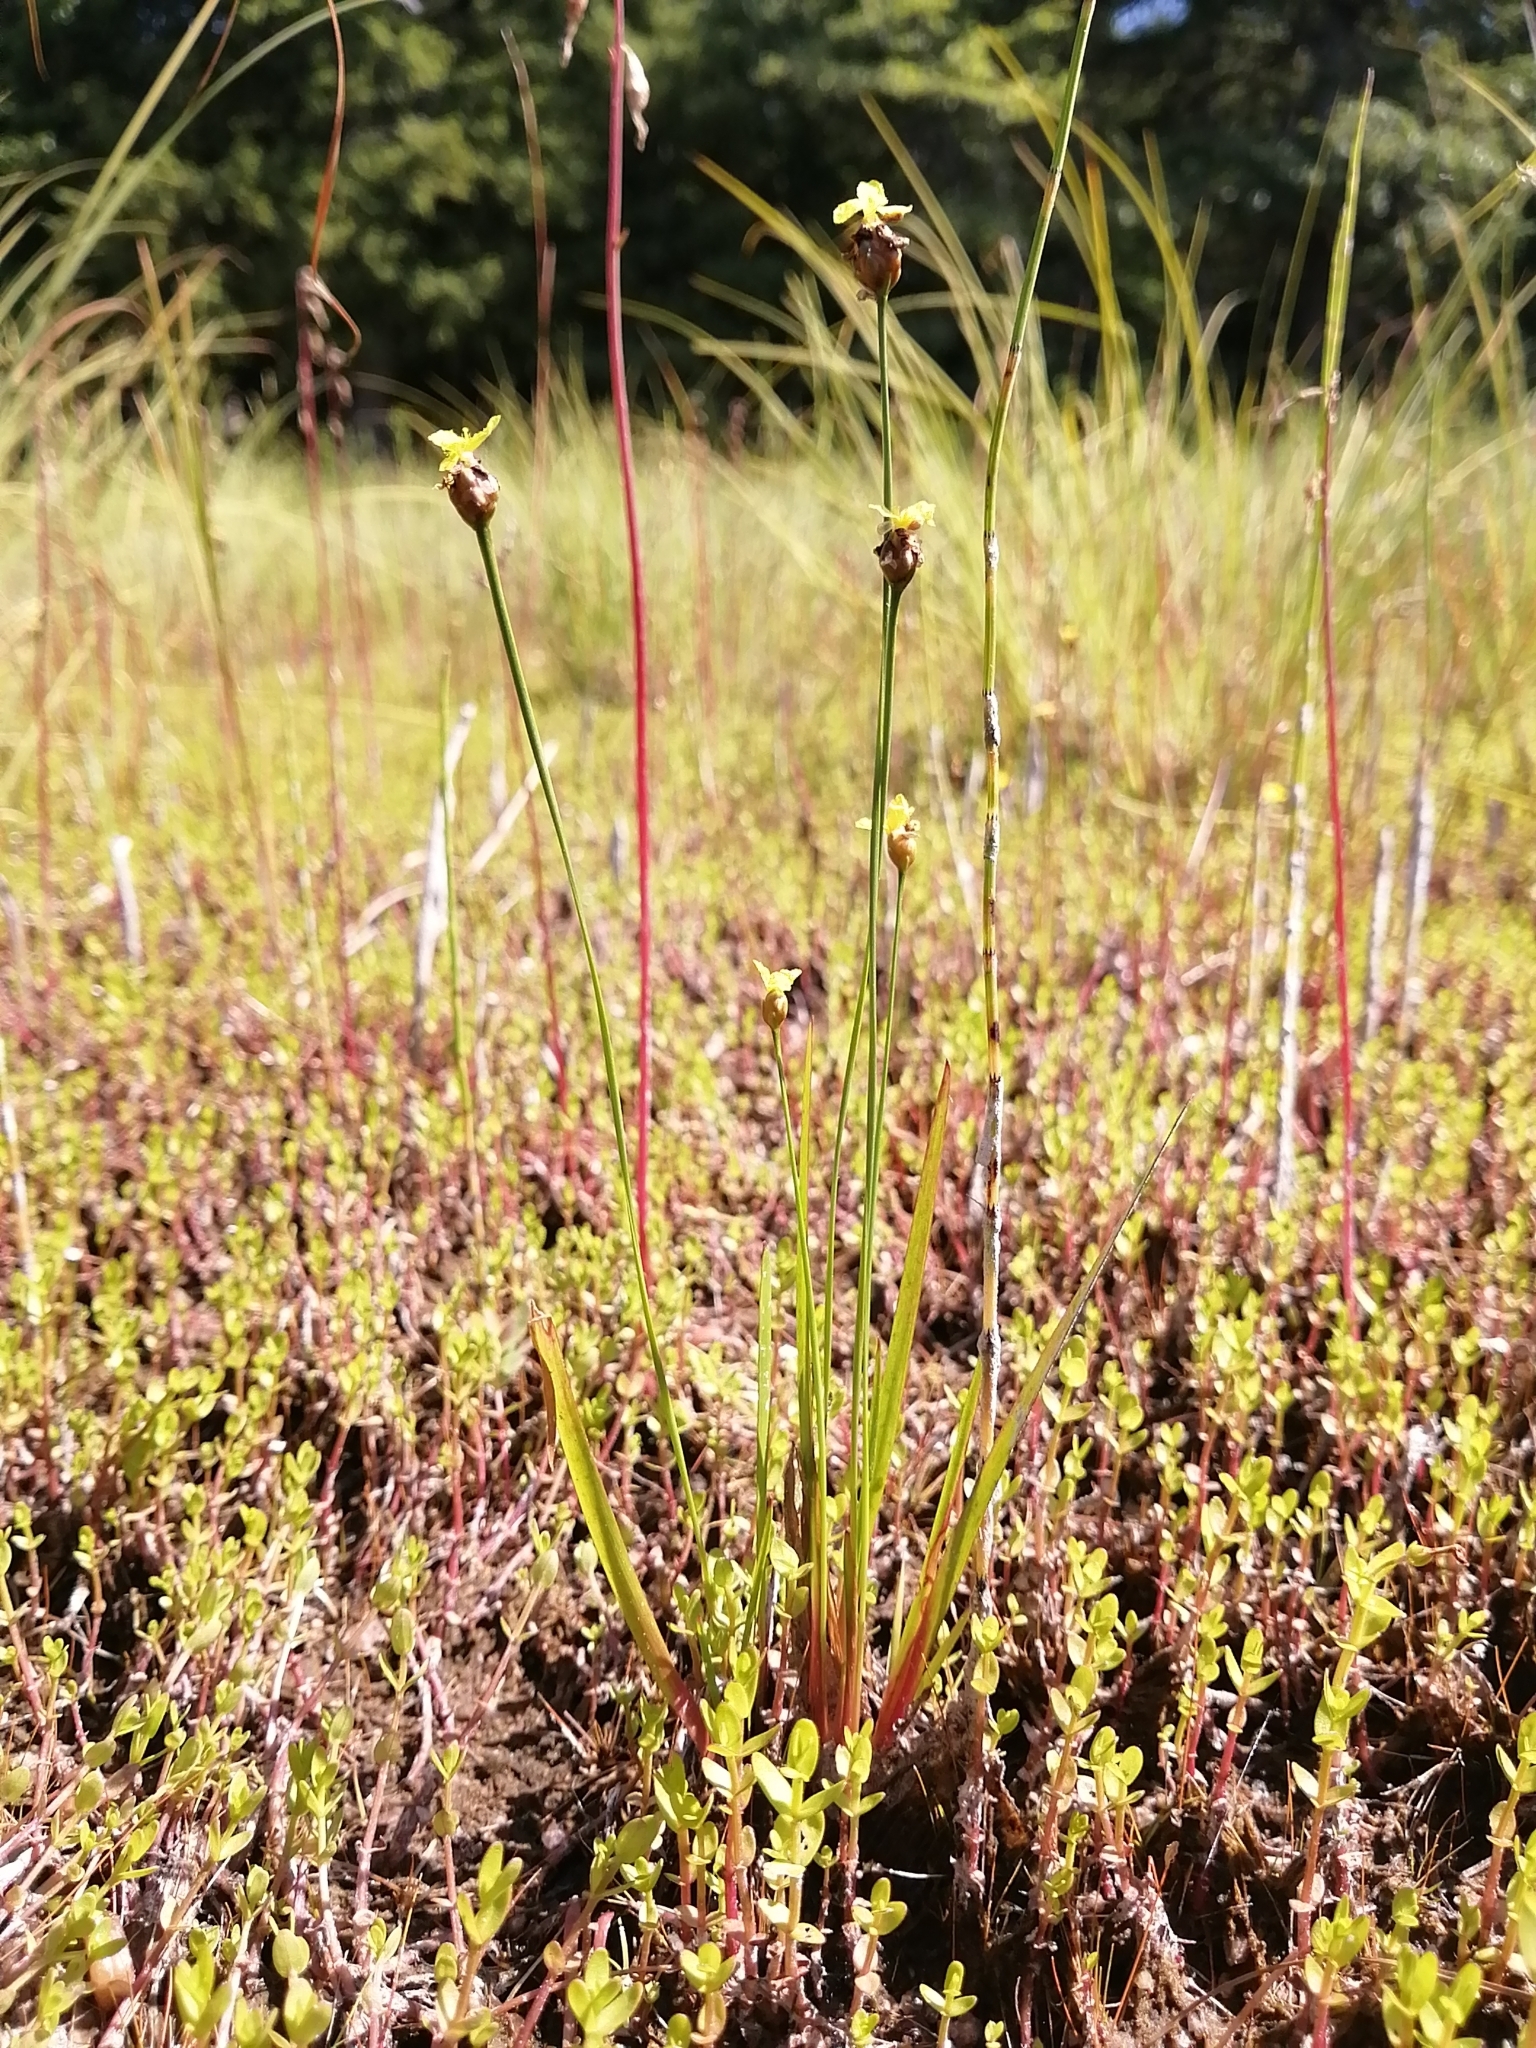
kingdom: Plantae
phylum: Tracheophyta
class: Liliopsida
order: Poales
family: Xyridaceae
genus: Xyris
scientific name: Xyris difformis
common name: Bog yellow-eyed-grass
